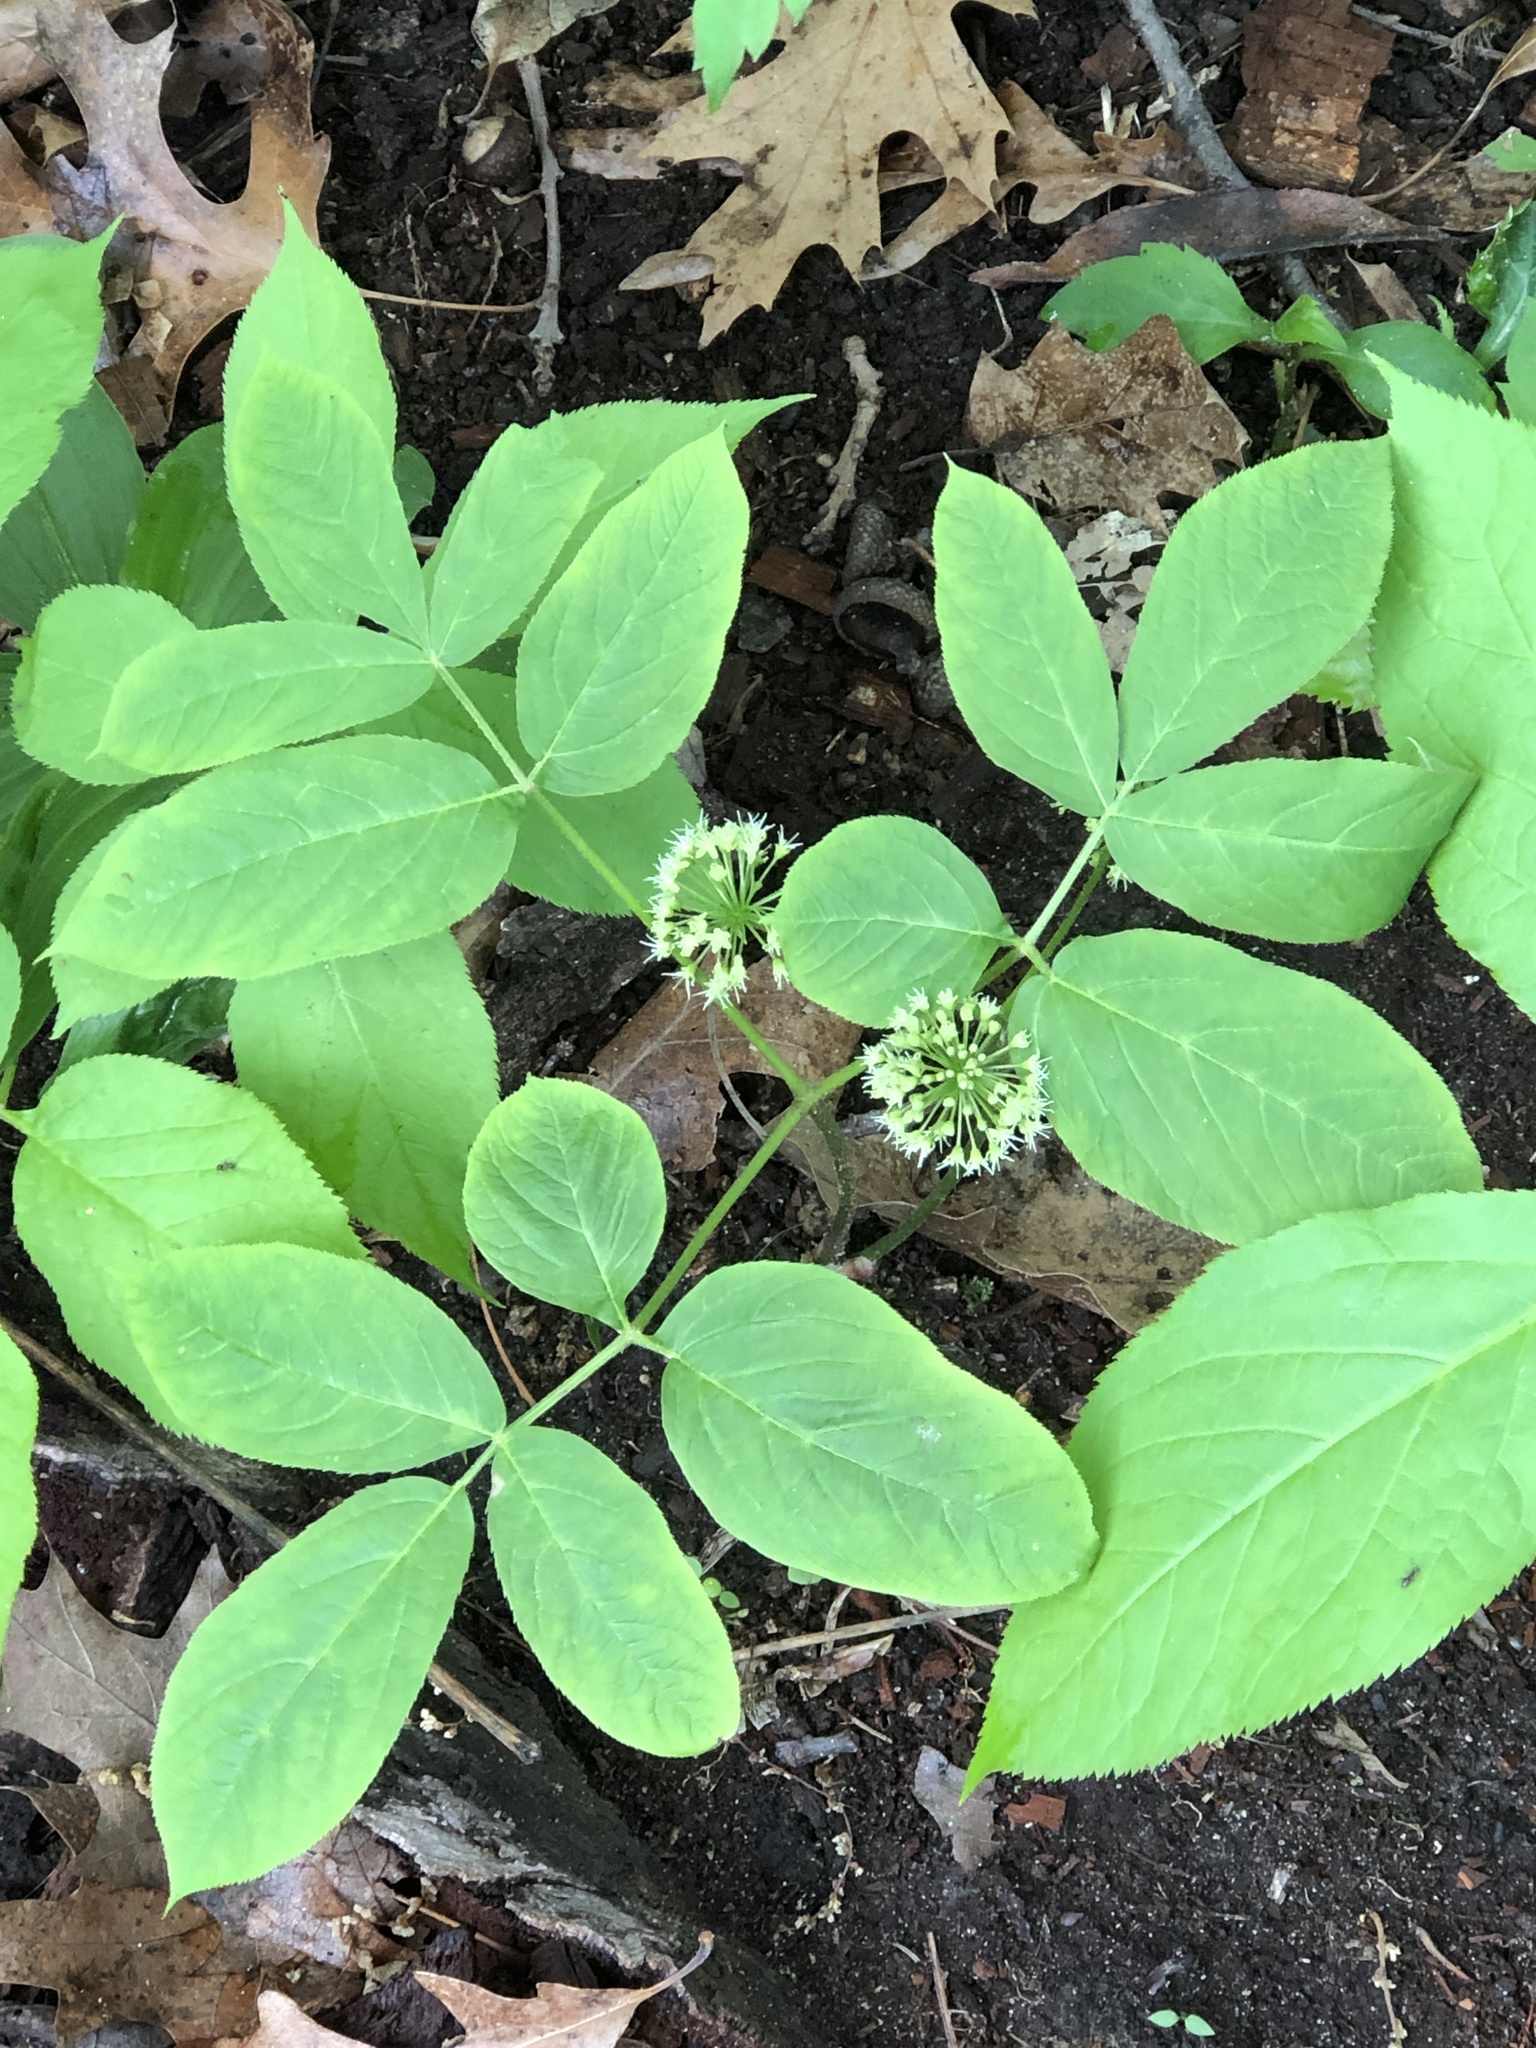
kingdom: Plantae
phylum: Tracheophyta
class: Magnoliopsida
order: Apiales
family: Araliaceae
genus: Aralia
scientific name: Aralia nudicaulis
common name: Wild sarsaparilla
